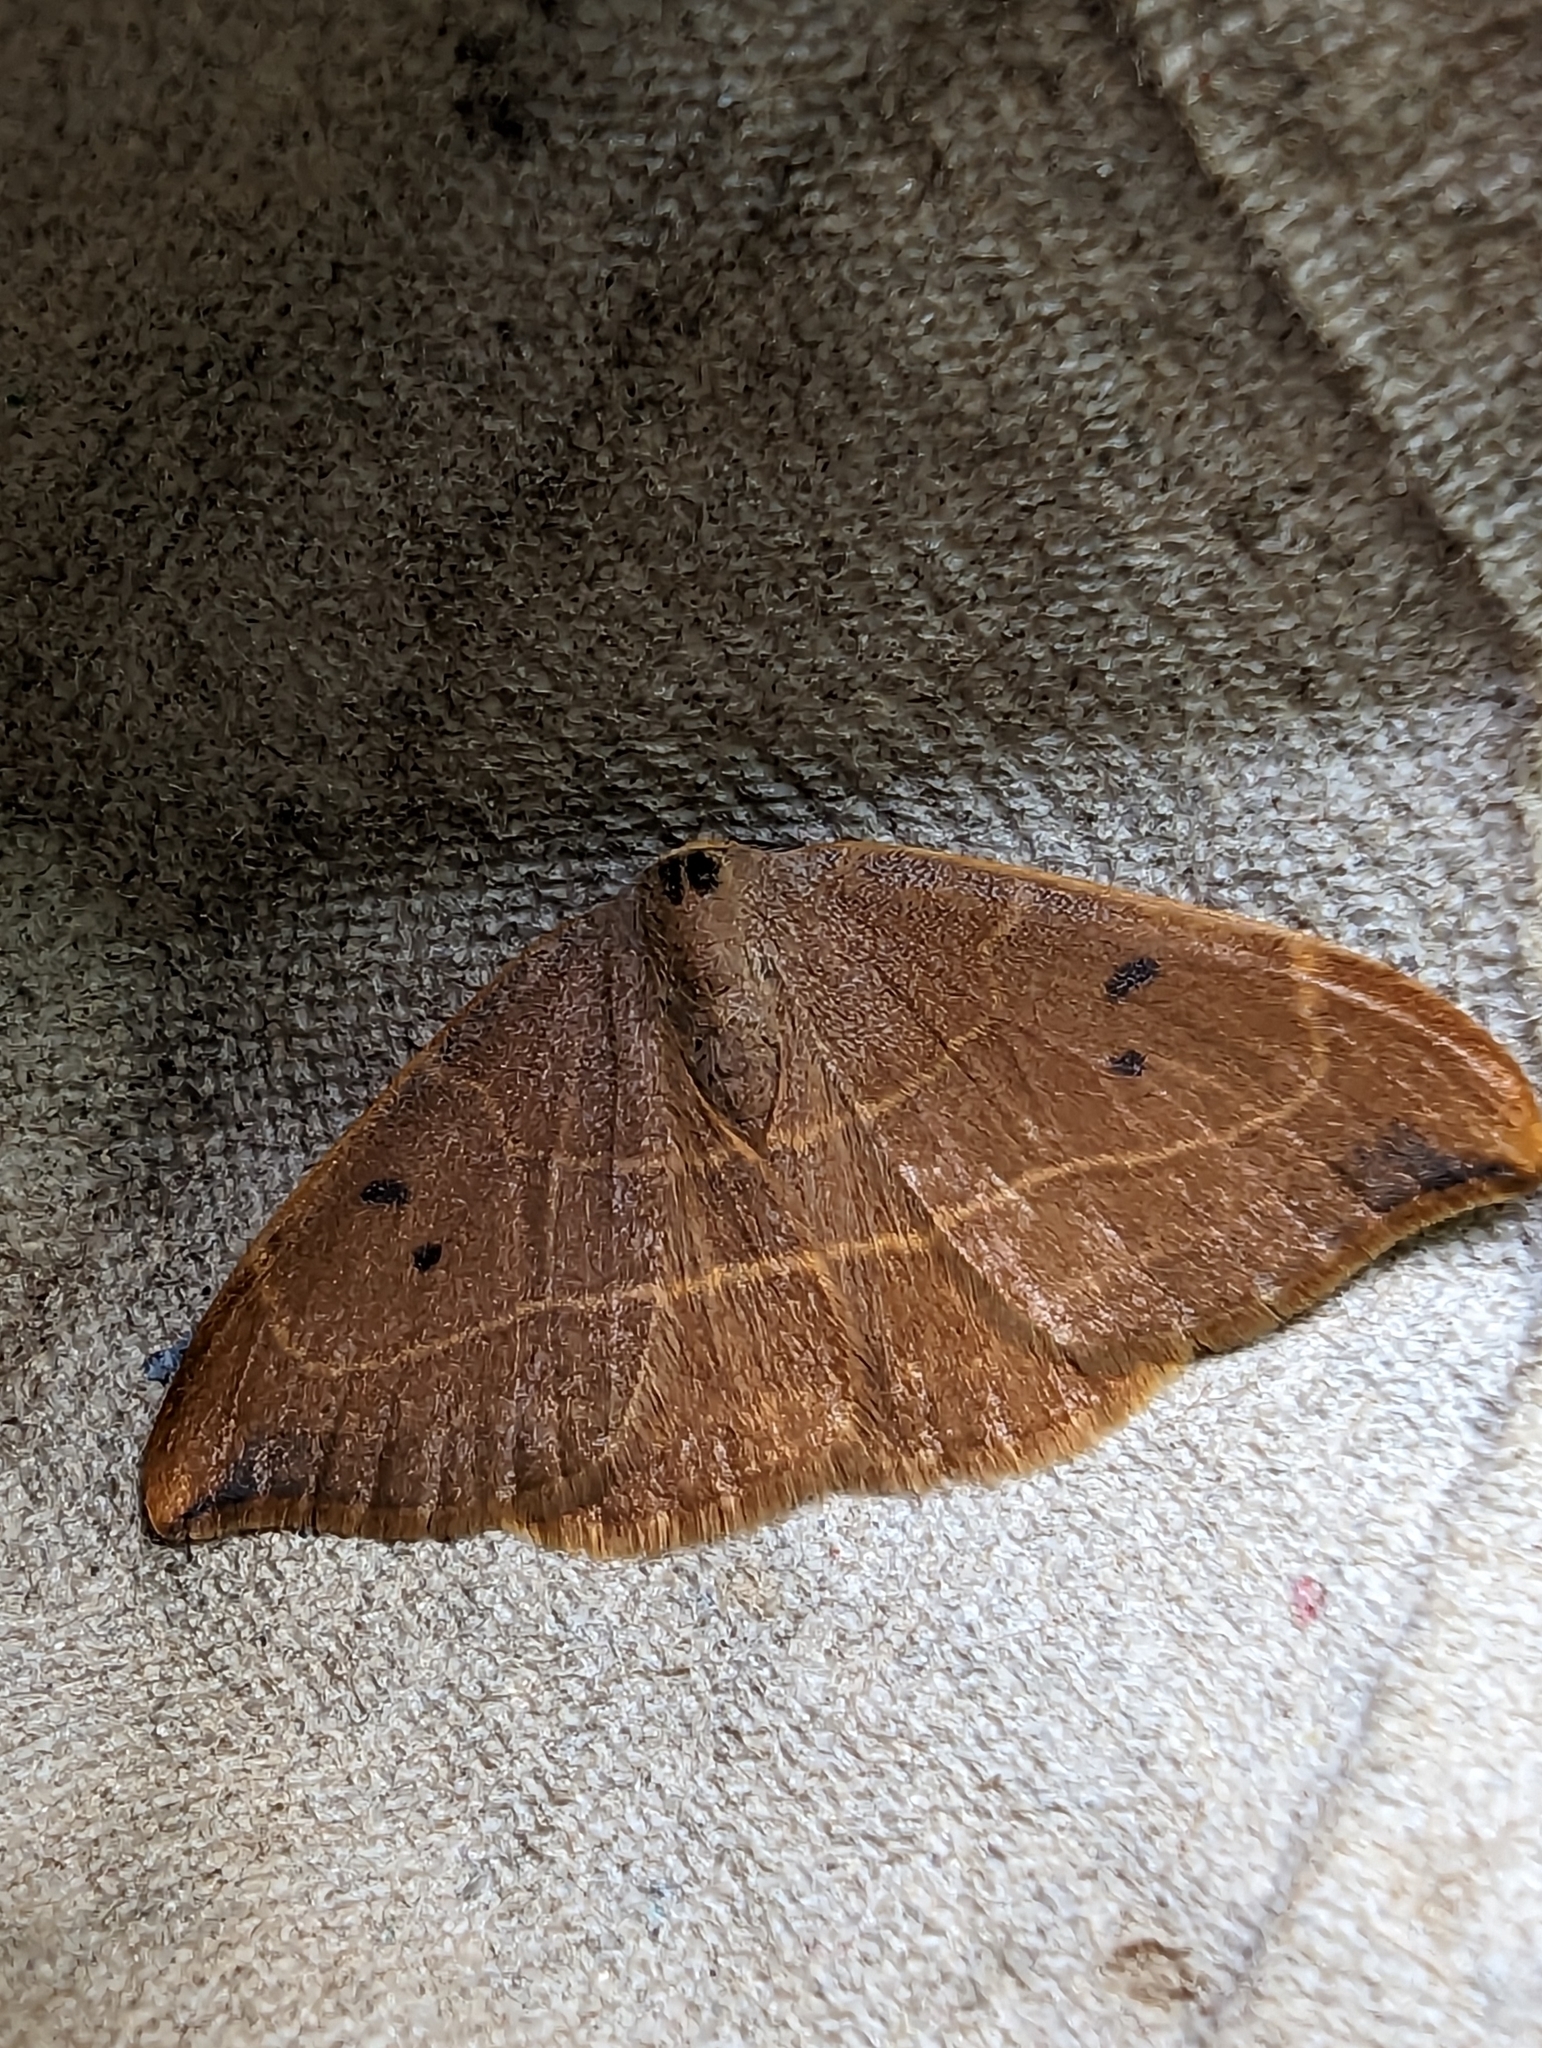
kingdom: Animalia
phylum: Arthropoda
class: Insecta
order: Lepidoptera
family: Drepanidae
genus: Watsonalla
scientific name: Watsonalla binaria
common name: Oak hook-tip
